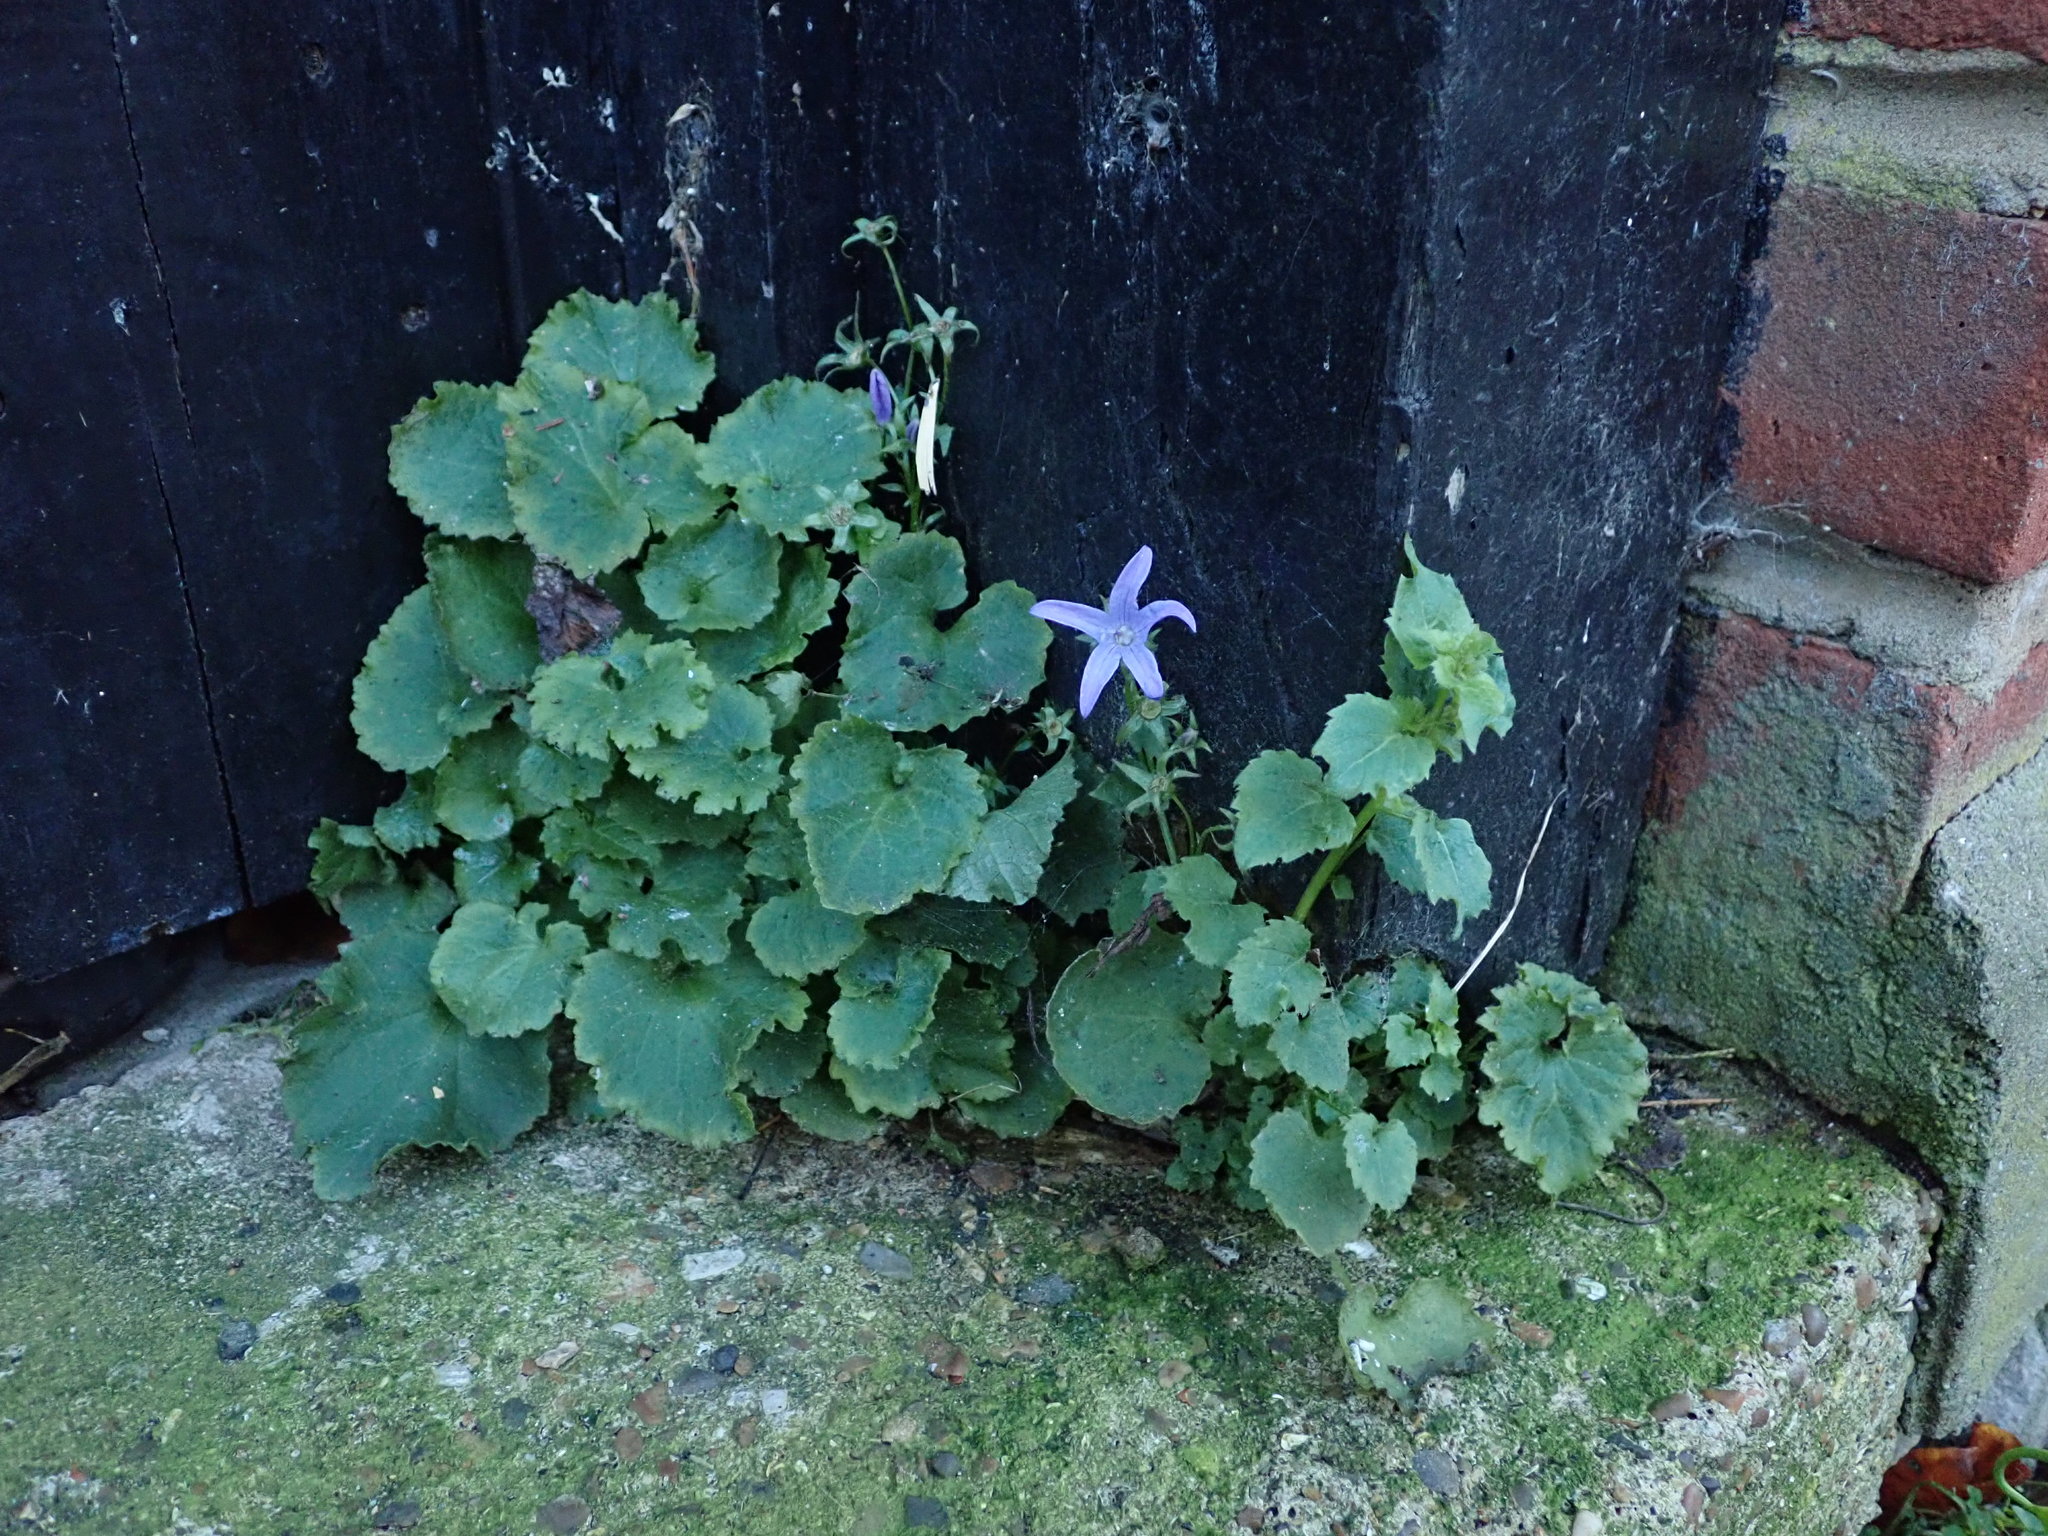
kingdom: Plantae
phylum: Tracheophyta
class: Magnoliopsida
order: Asterales
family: Campanulaceae
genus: Campanula
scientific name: Campanula poscharskyana
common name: Trailing bellflower
